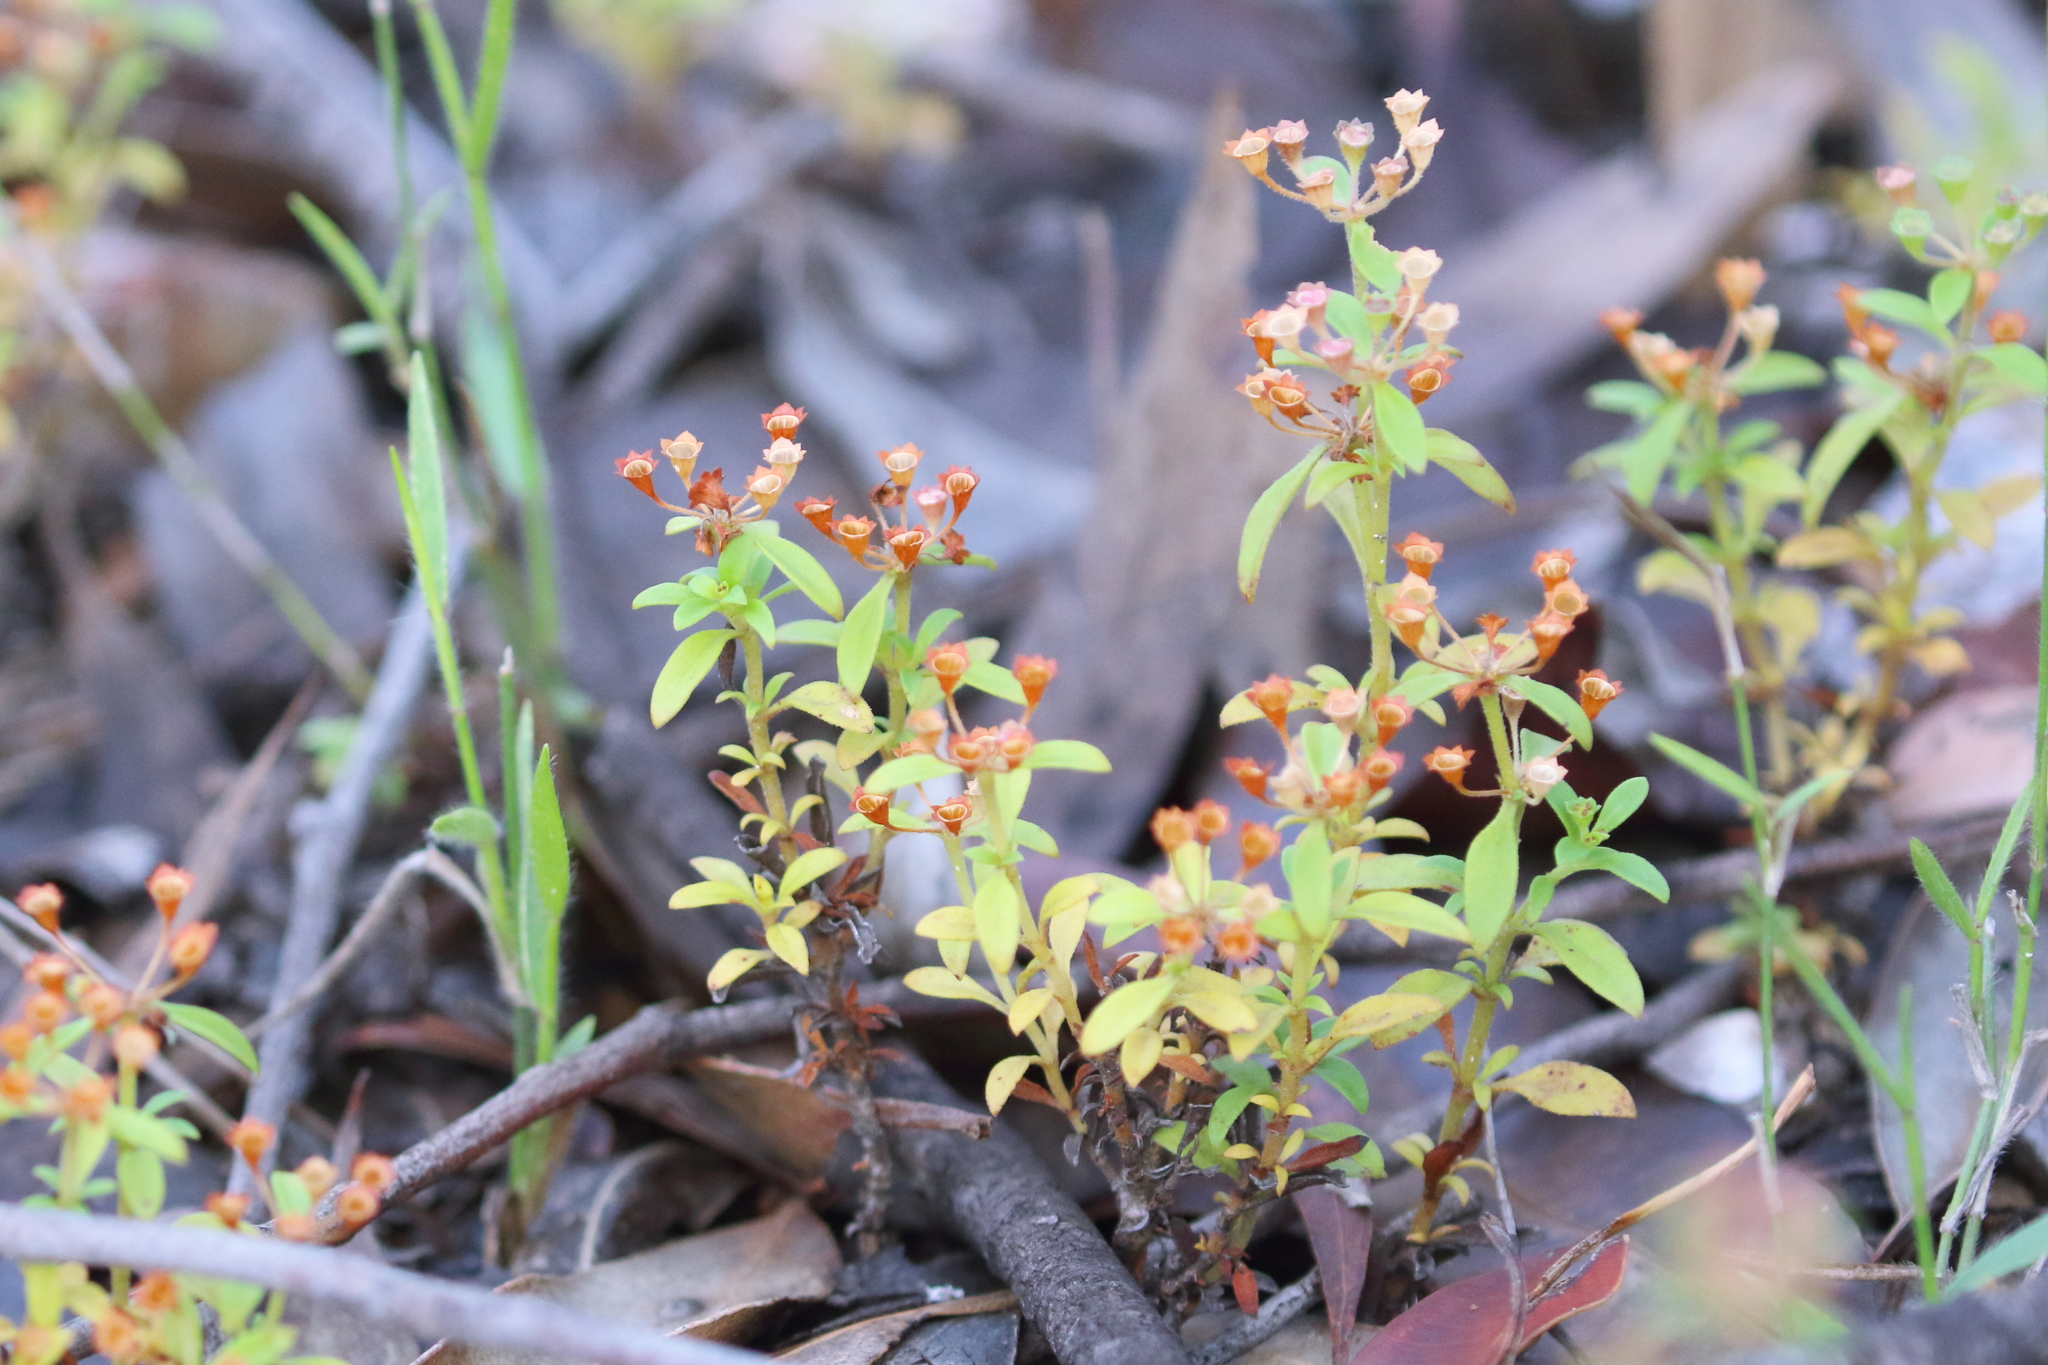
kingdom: Plantae
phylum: Tracheophyta
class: Magnoliopsida
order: Gentianales
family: Rubiaceae
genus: Pomax
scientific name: Pomax umbellata
